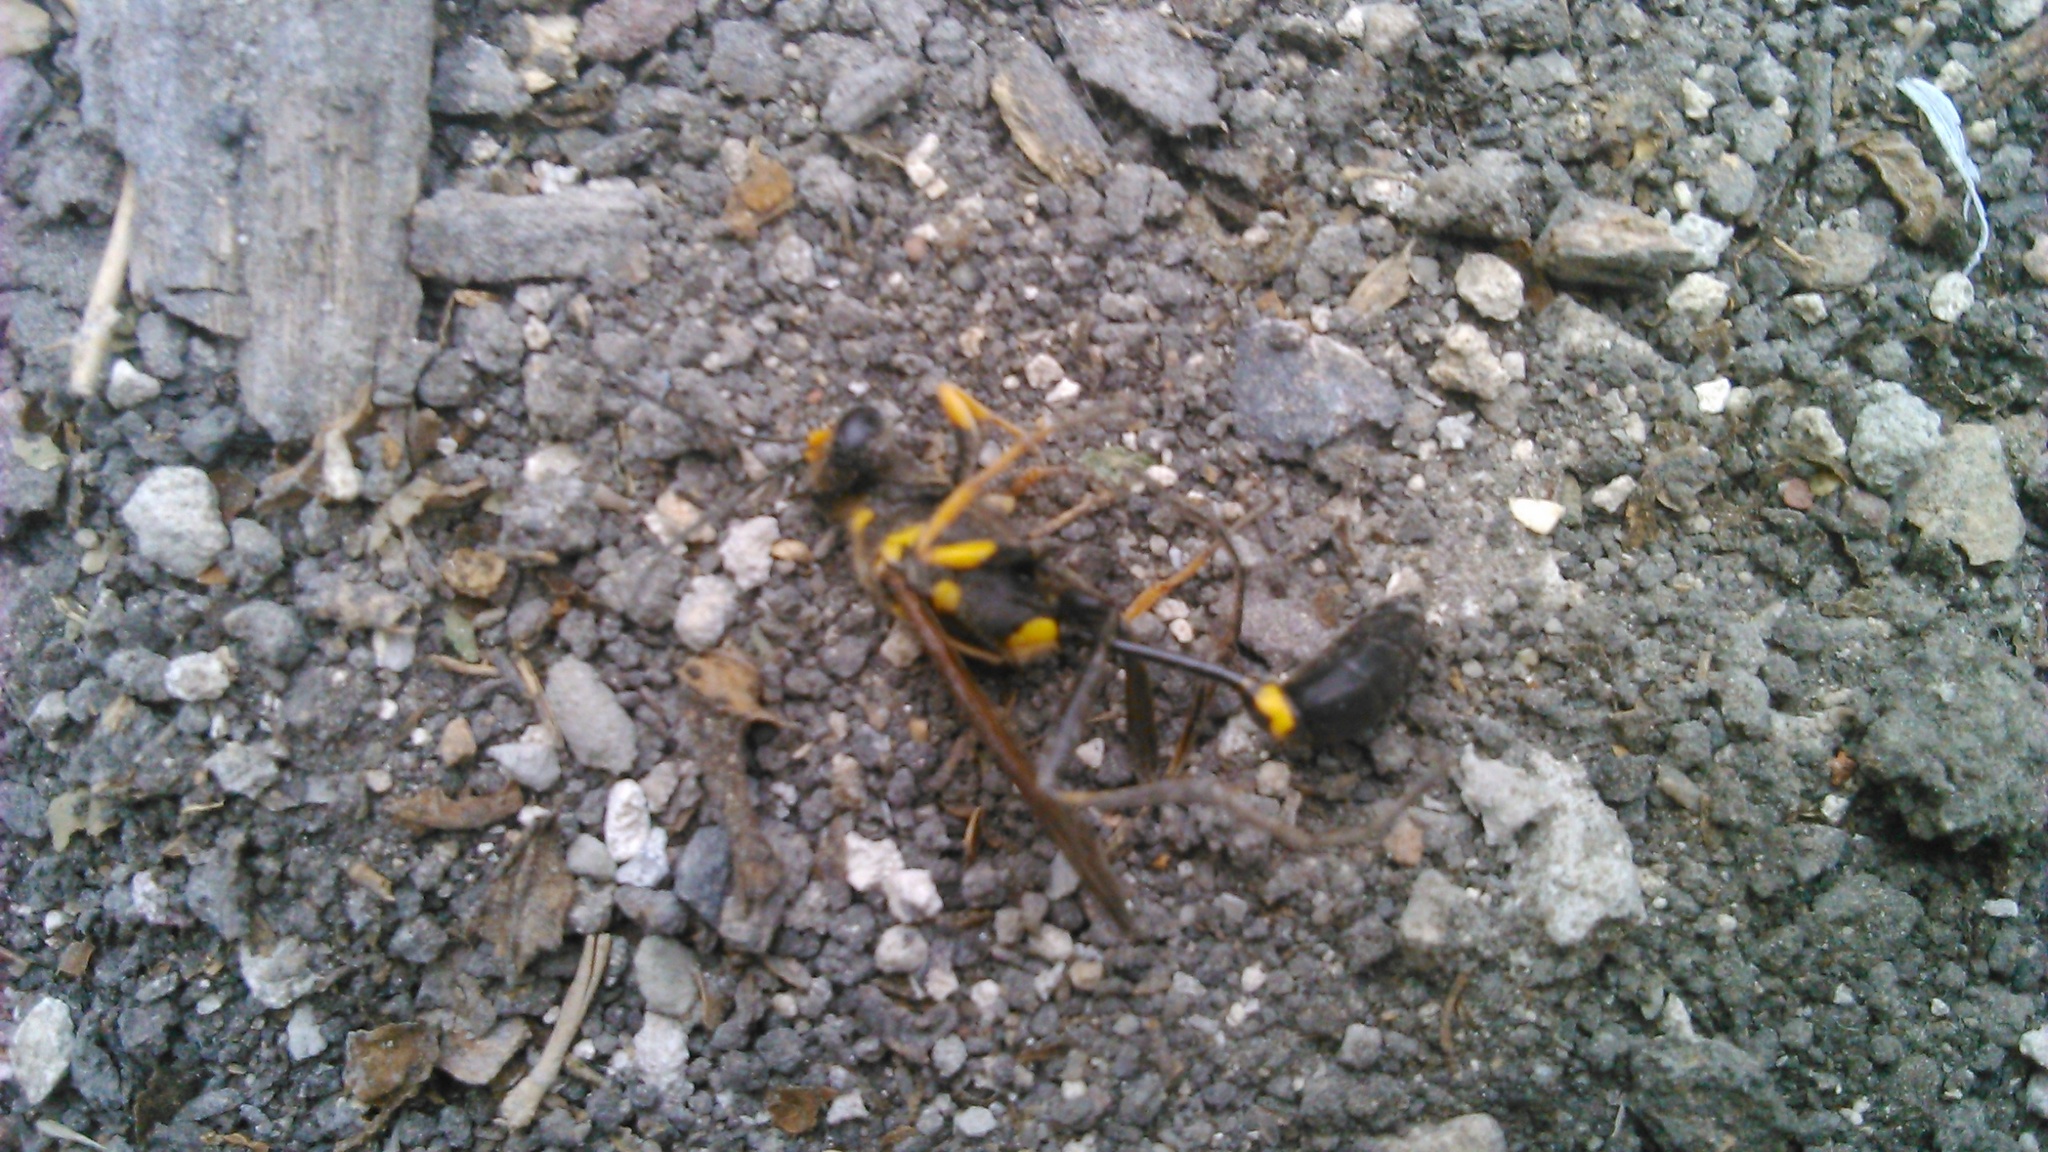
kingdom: Animalia
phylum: Arthropoda
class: Insecta
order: Hymenoptera
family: Sphecidae
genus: Sceliphron
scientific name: Sceliphron assimile
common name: Clayman's mud dauber
